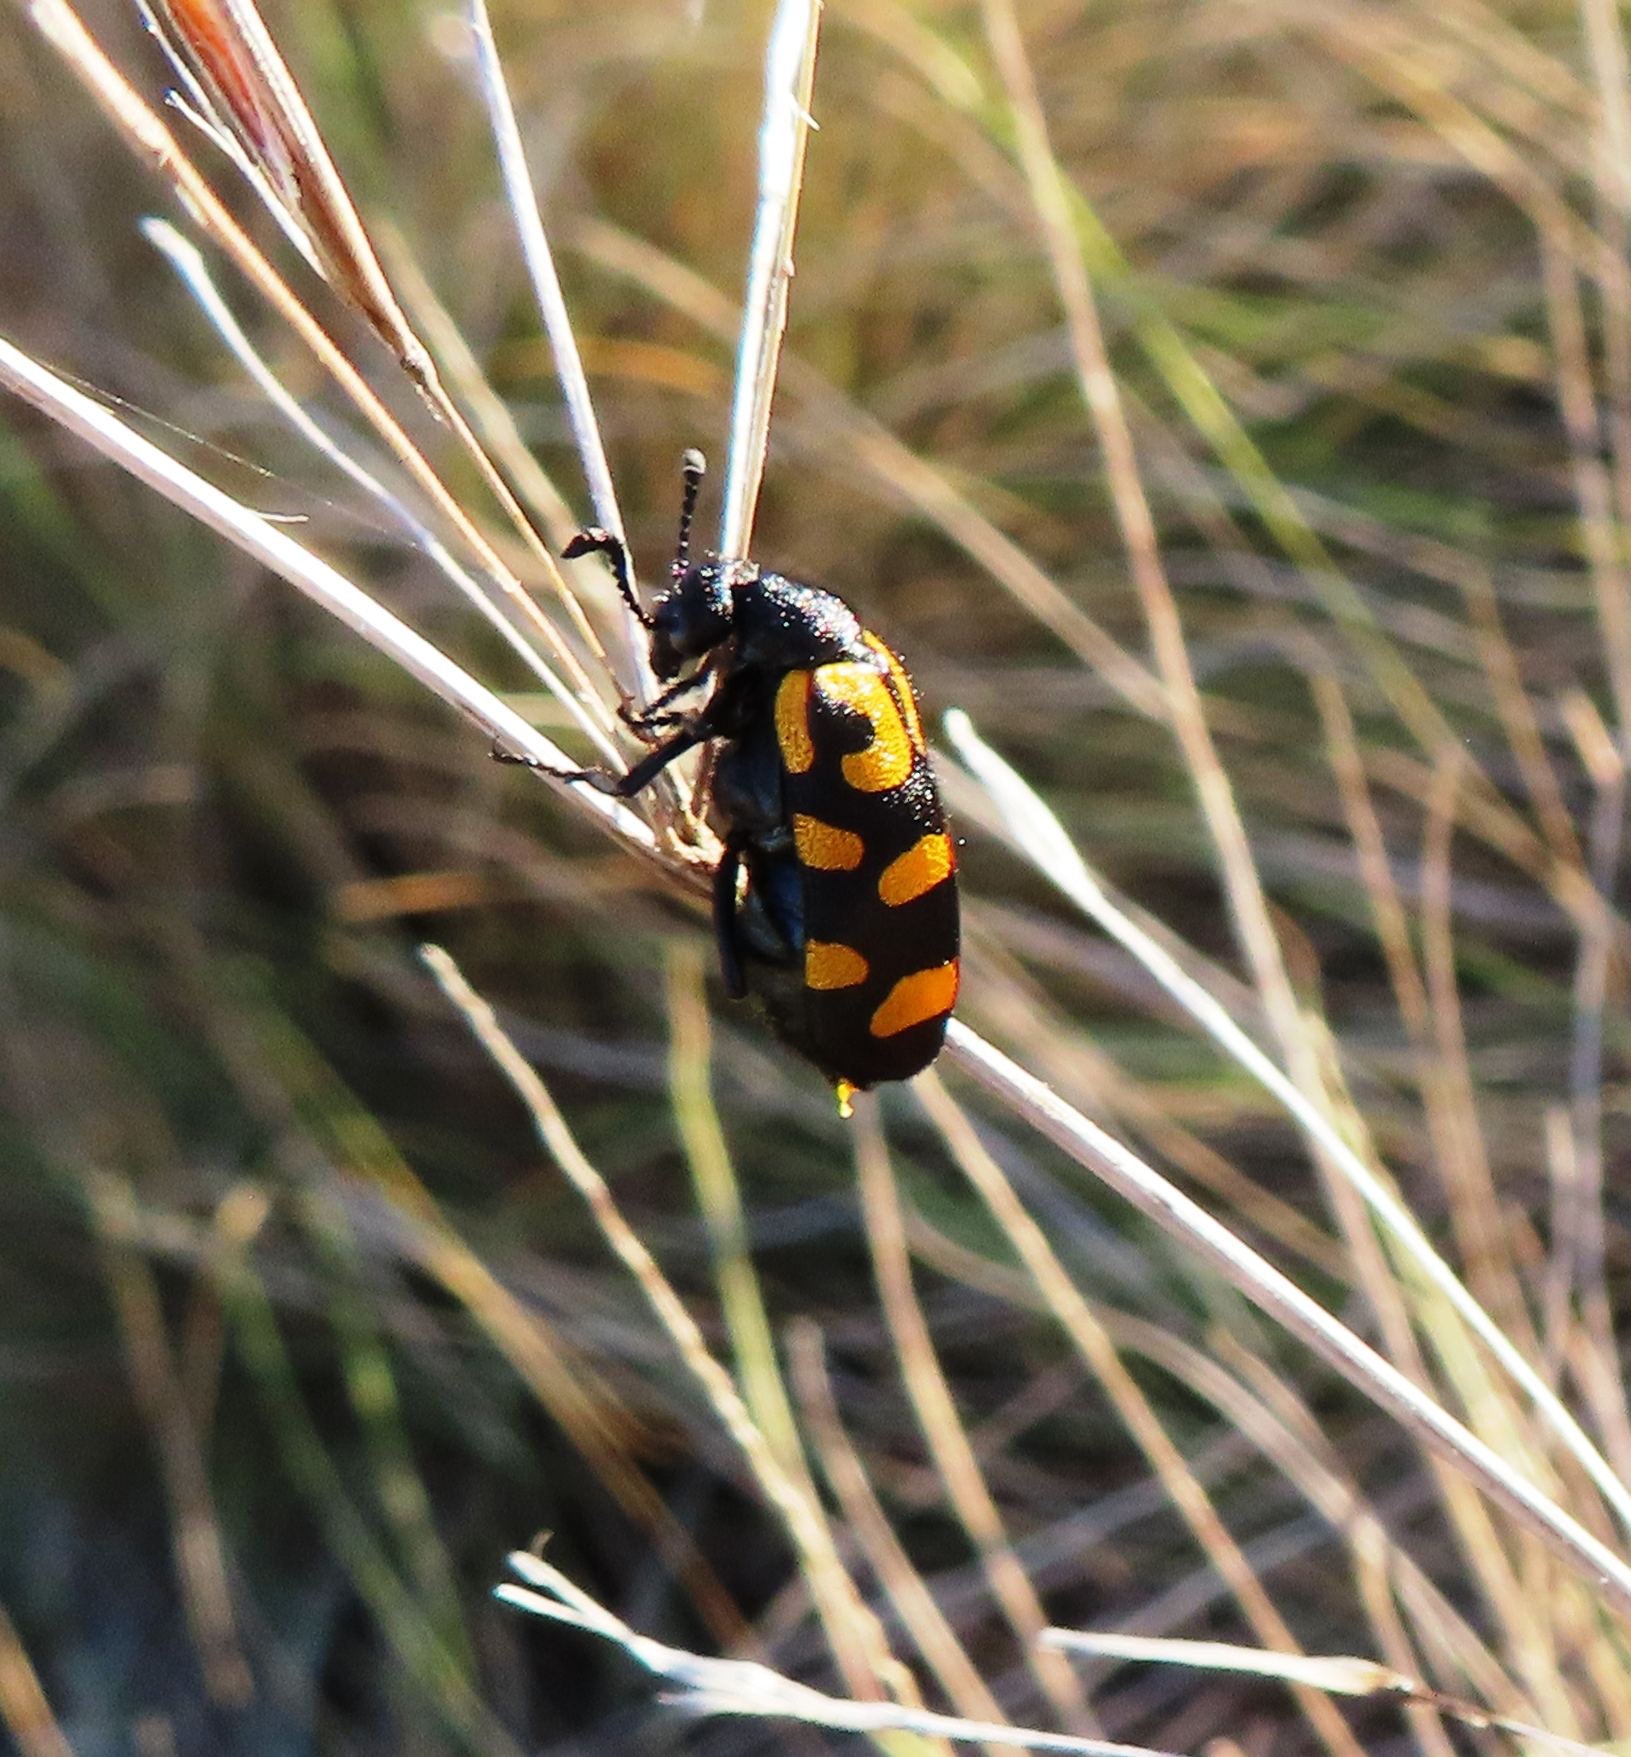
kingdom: Animalia
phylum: Arthropoda
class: Insecta
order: Coleoptera
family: Meloidae
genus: Ceroctis
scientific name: Ceroctis capensis
